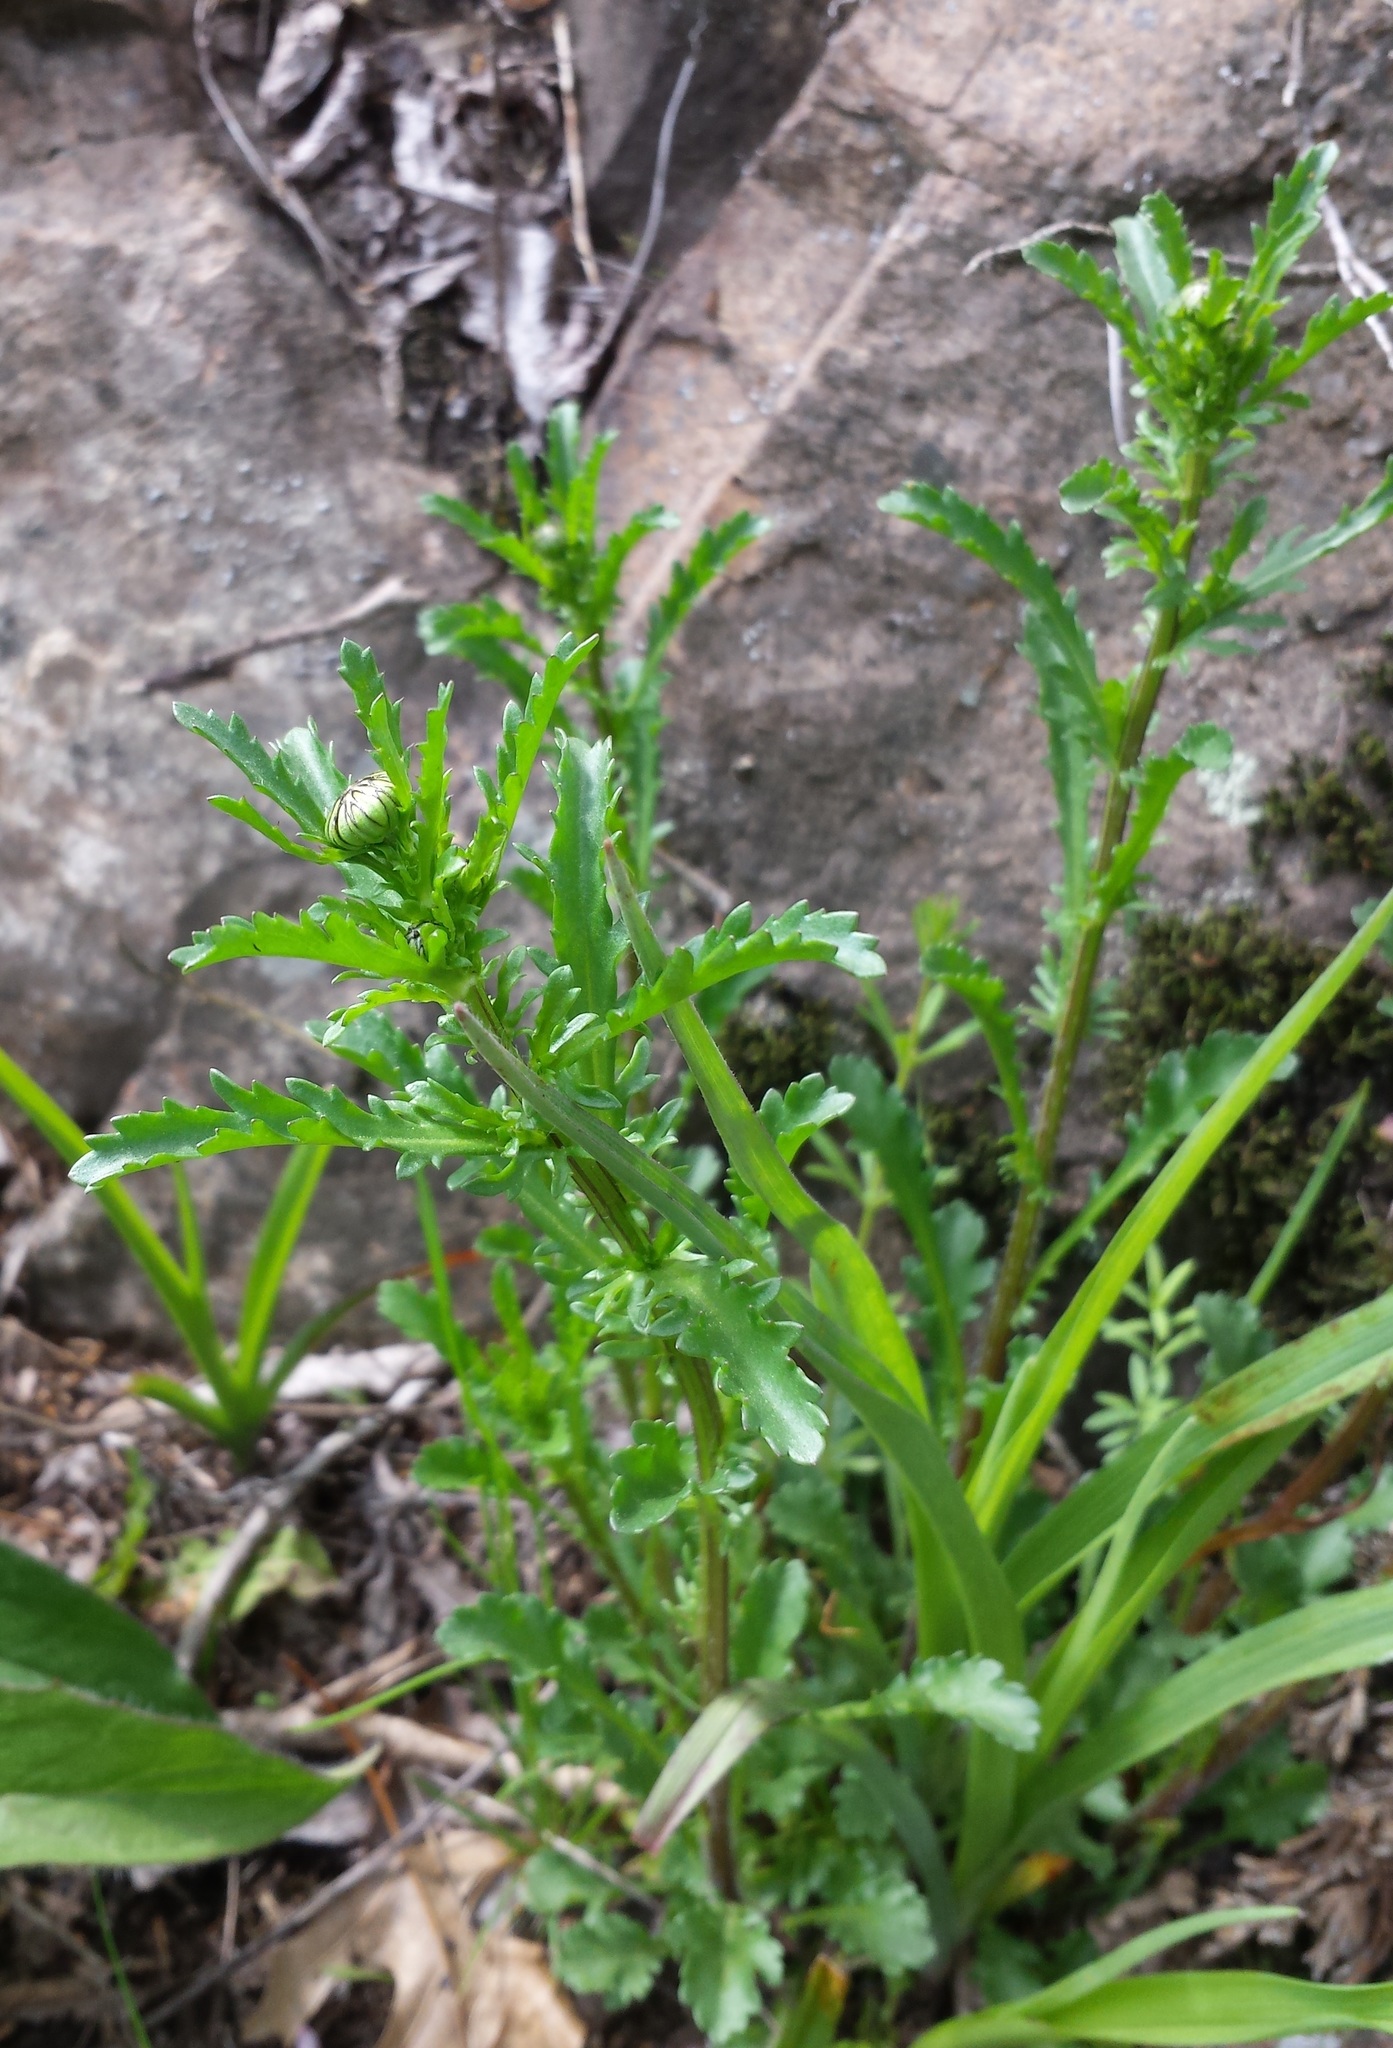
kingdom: Plantae
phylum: Tracheophyta
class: Magnoliopsida
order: Asterales
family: Asteraceae
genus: Leucanthemum
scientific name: Leucanthemum vulgare
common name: Oxeye daisy
